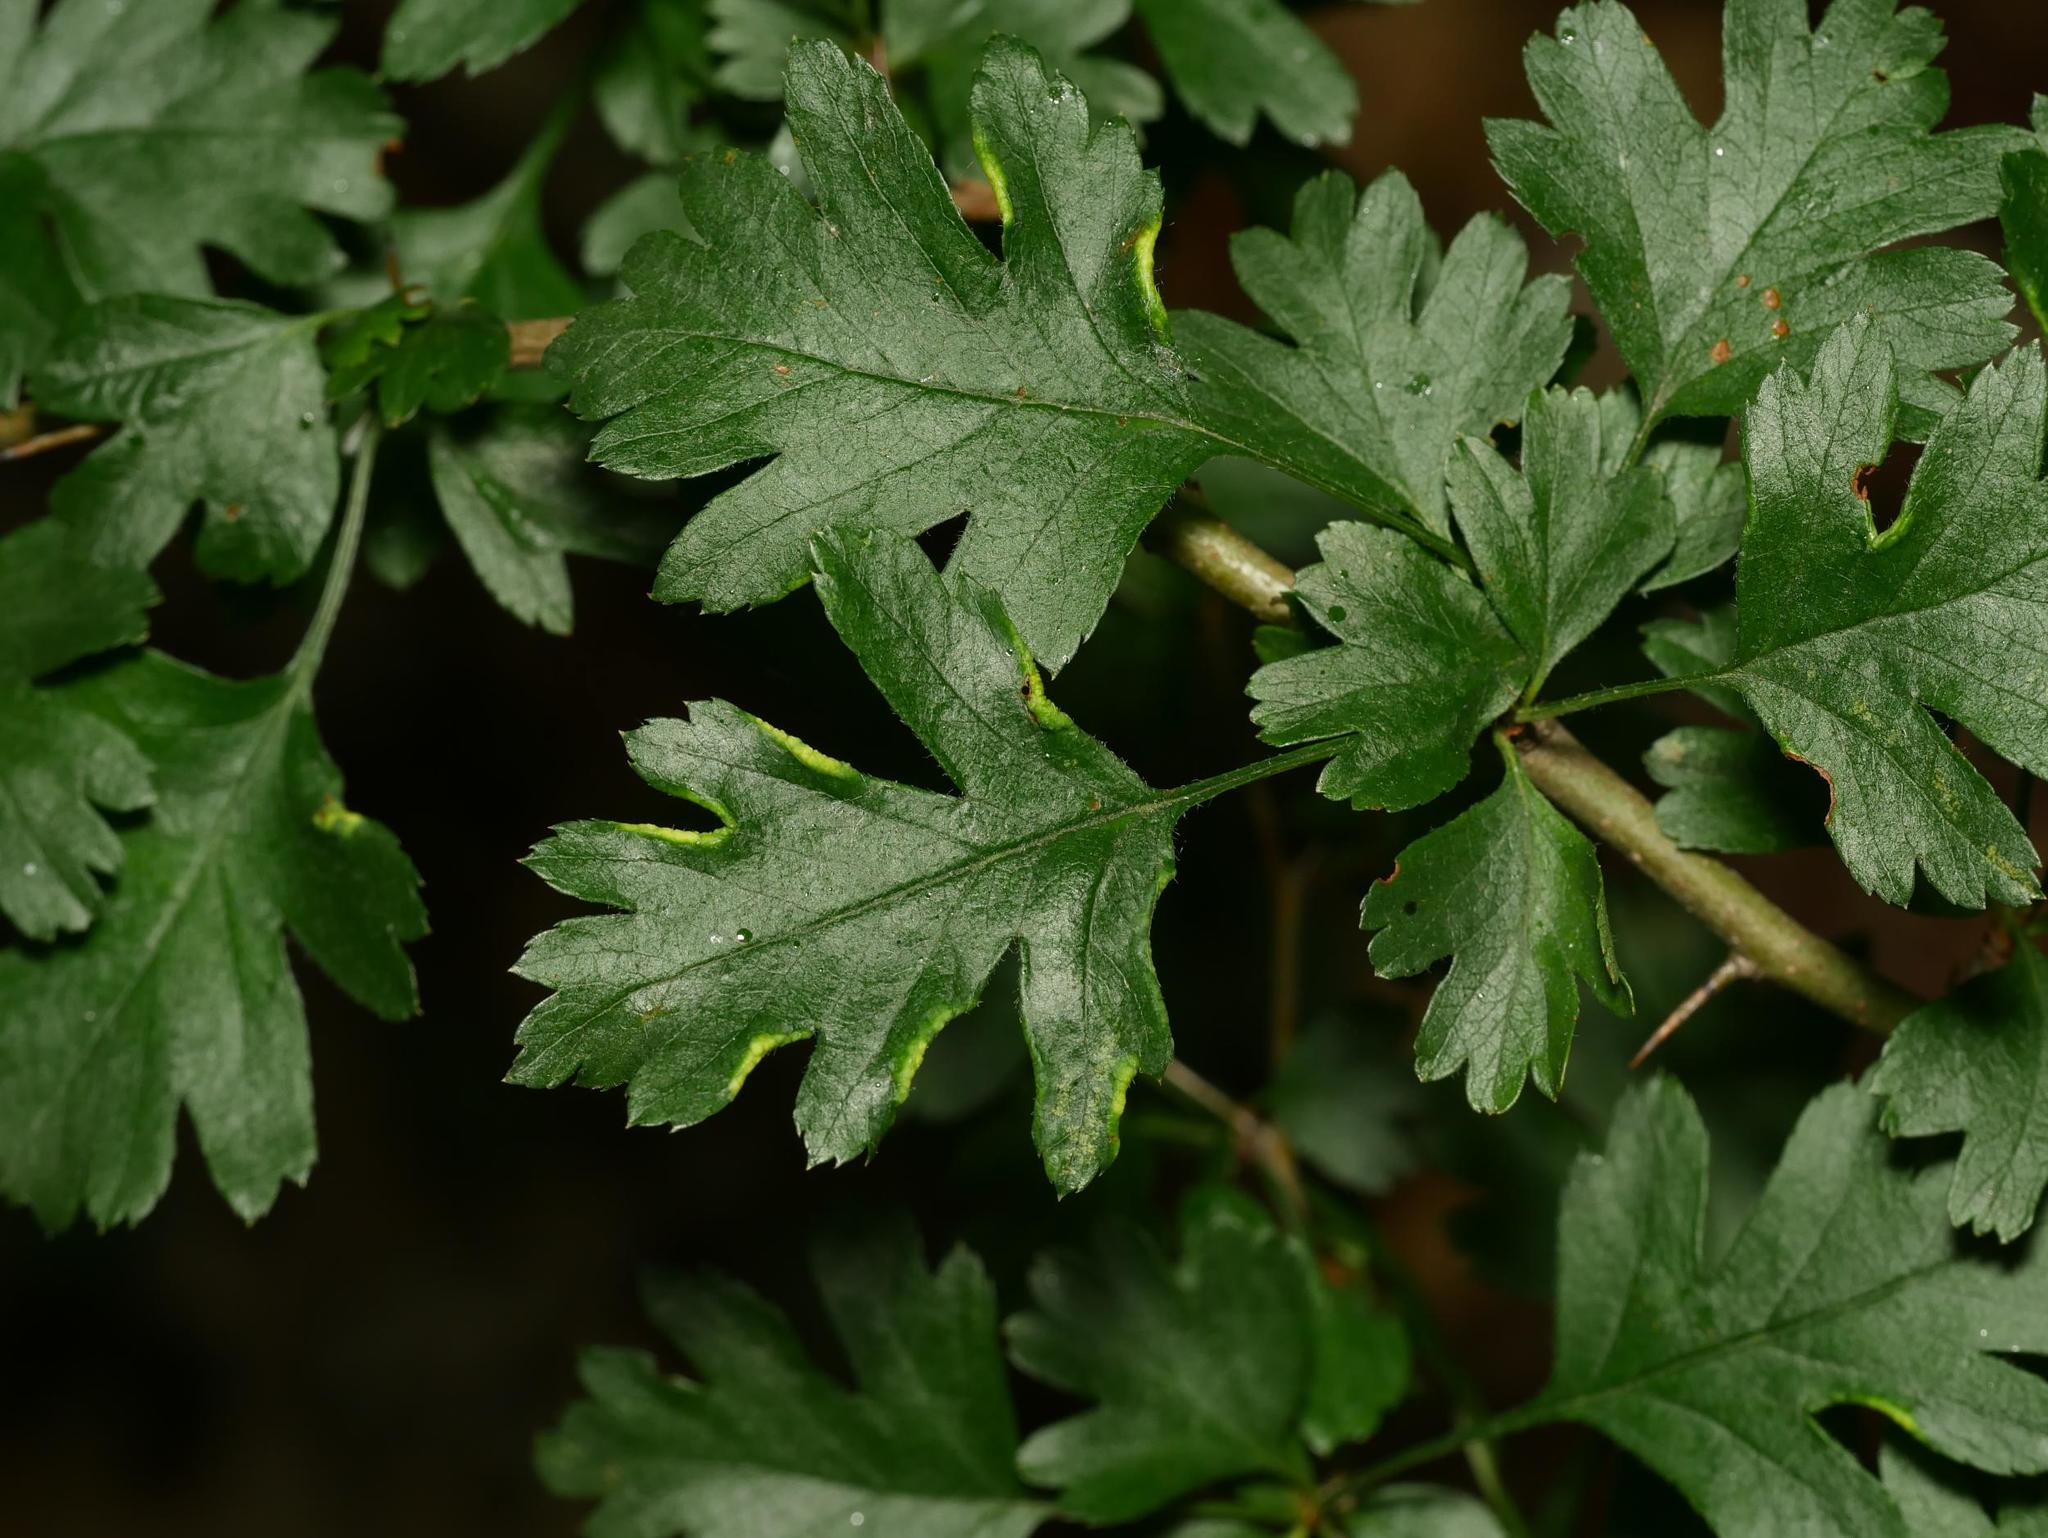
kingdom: Plantae
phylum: Tracheophyta
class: Magnoliopsida
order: Rosales
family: Rosaceae
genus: Crataegus
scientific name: Crataegus monogyna
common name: Hawthorn
